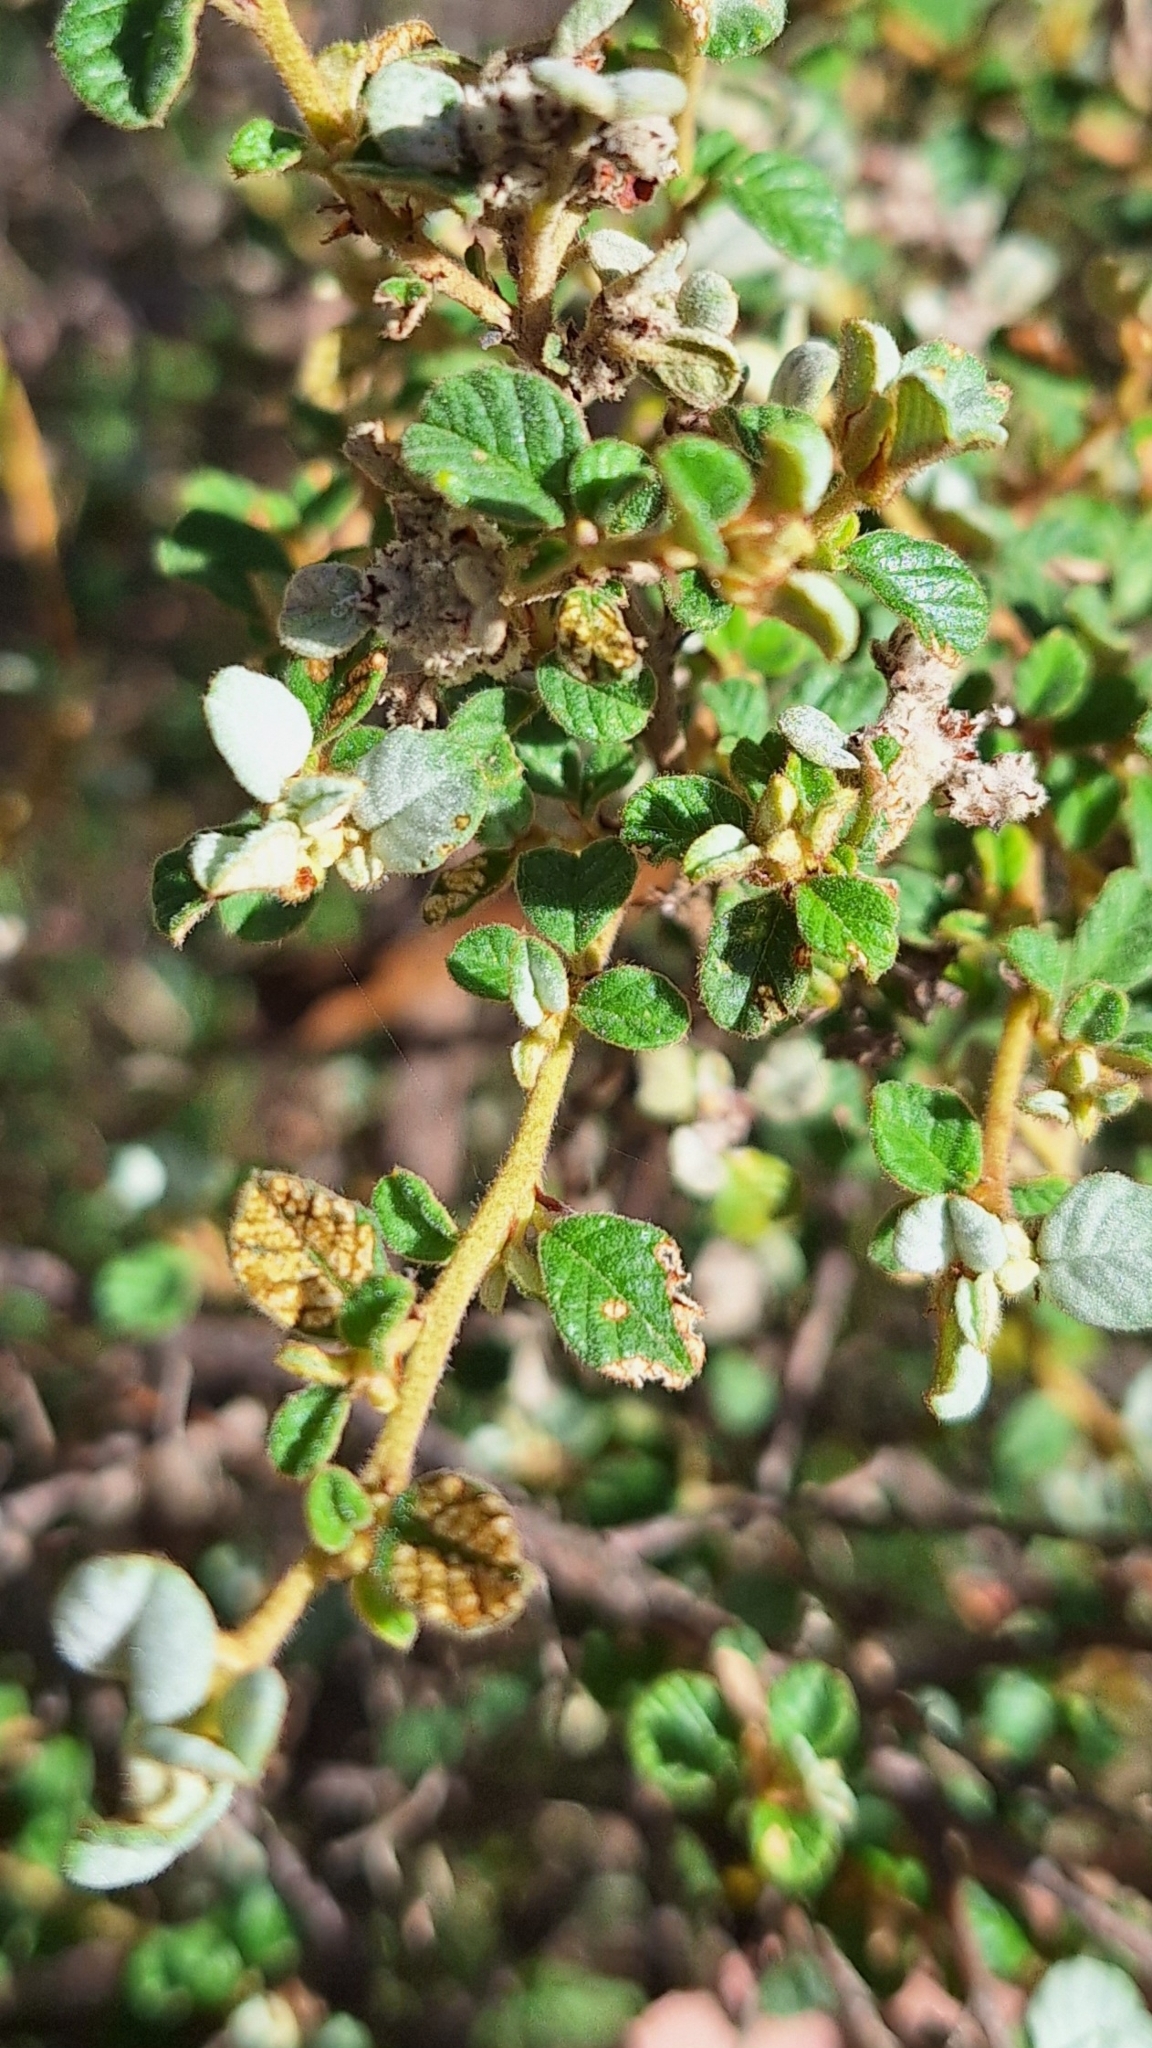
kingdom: Plantae
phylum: Tracheophyta
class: Magnoliopsida
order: Rosales
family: Rhamnaceae
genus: Spyridium
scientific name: Spyridium parvifolium
